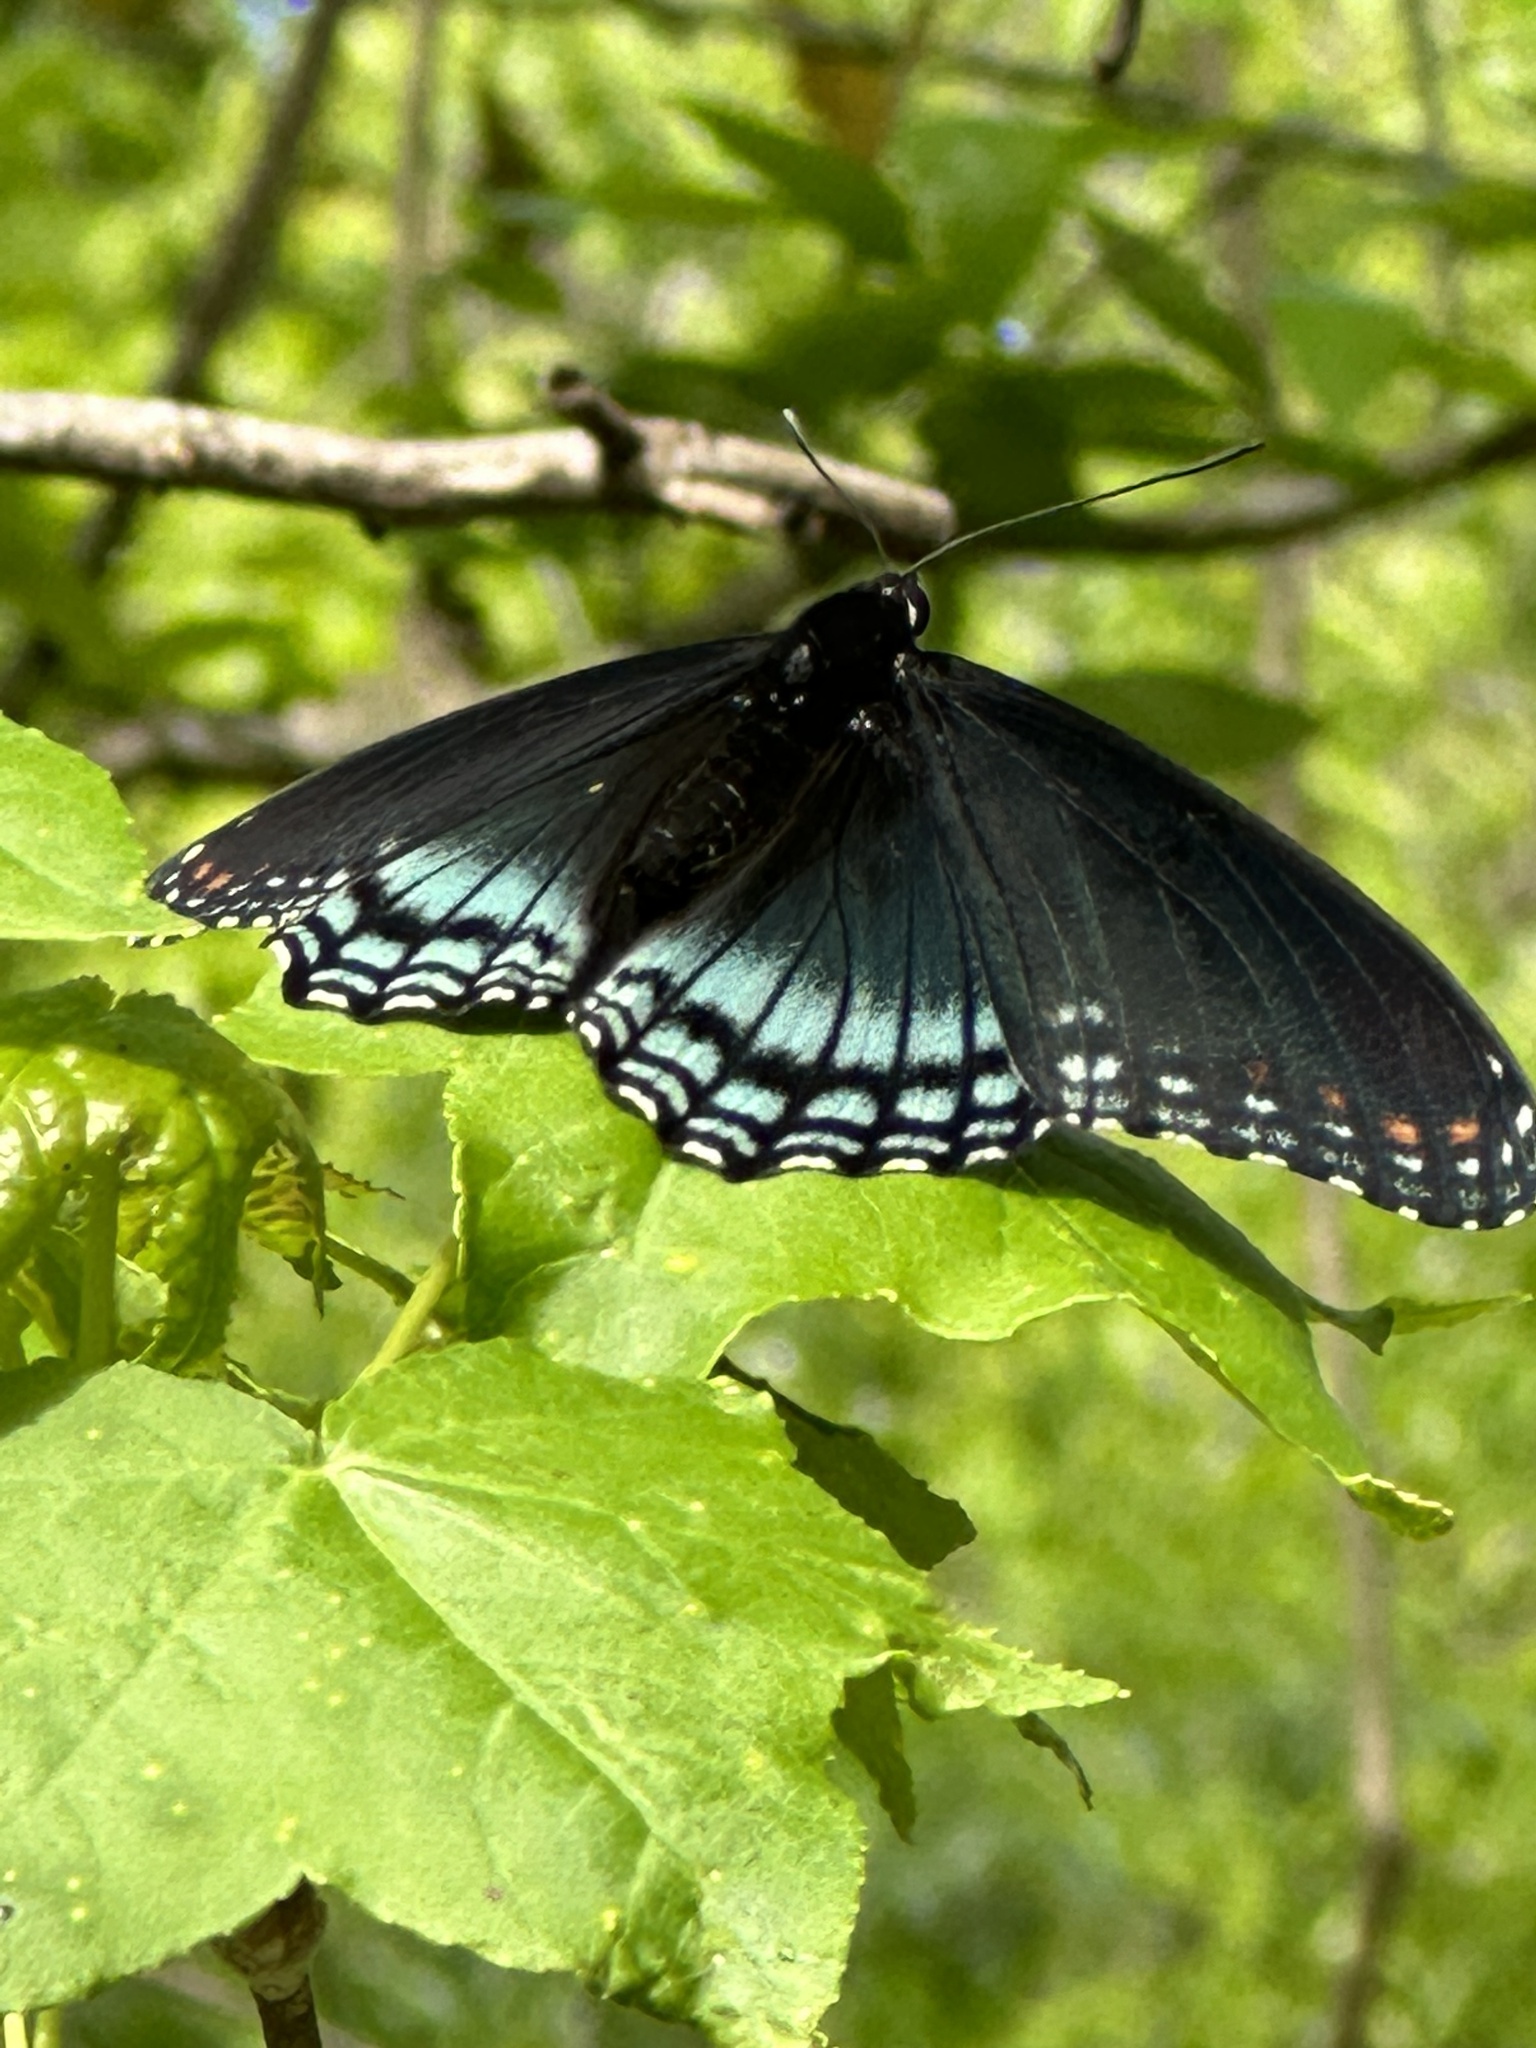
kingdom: Animalia
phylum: Arthropoda
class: Insecta
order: Lepidoptera
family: Nymphalidae
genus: Limenitis
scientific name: Limenitis arthemis
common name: Red-spotted admiral
